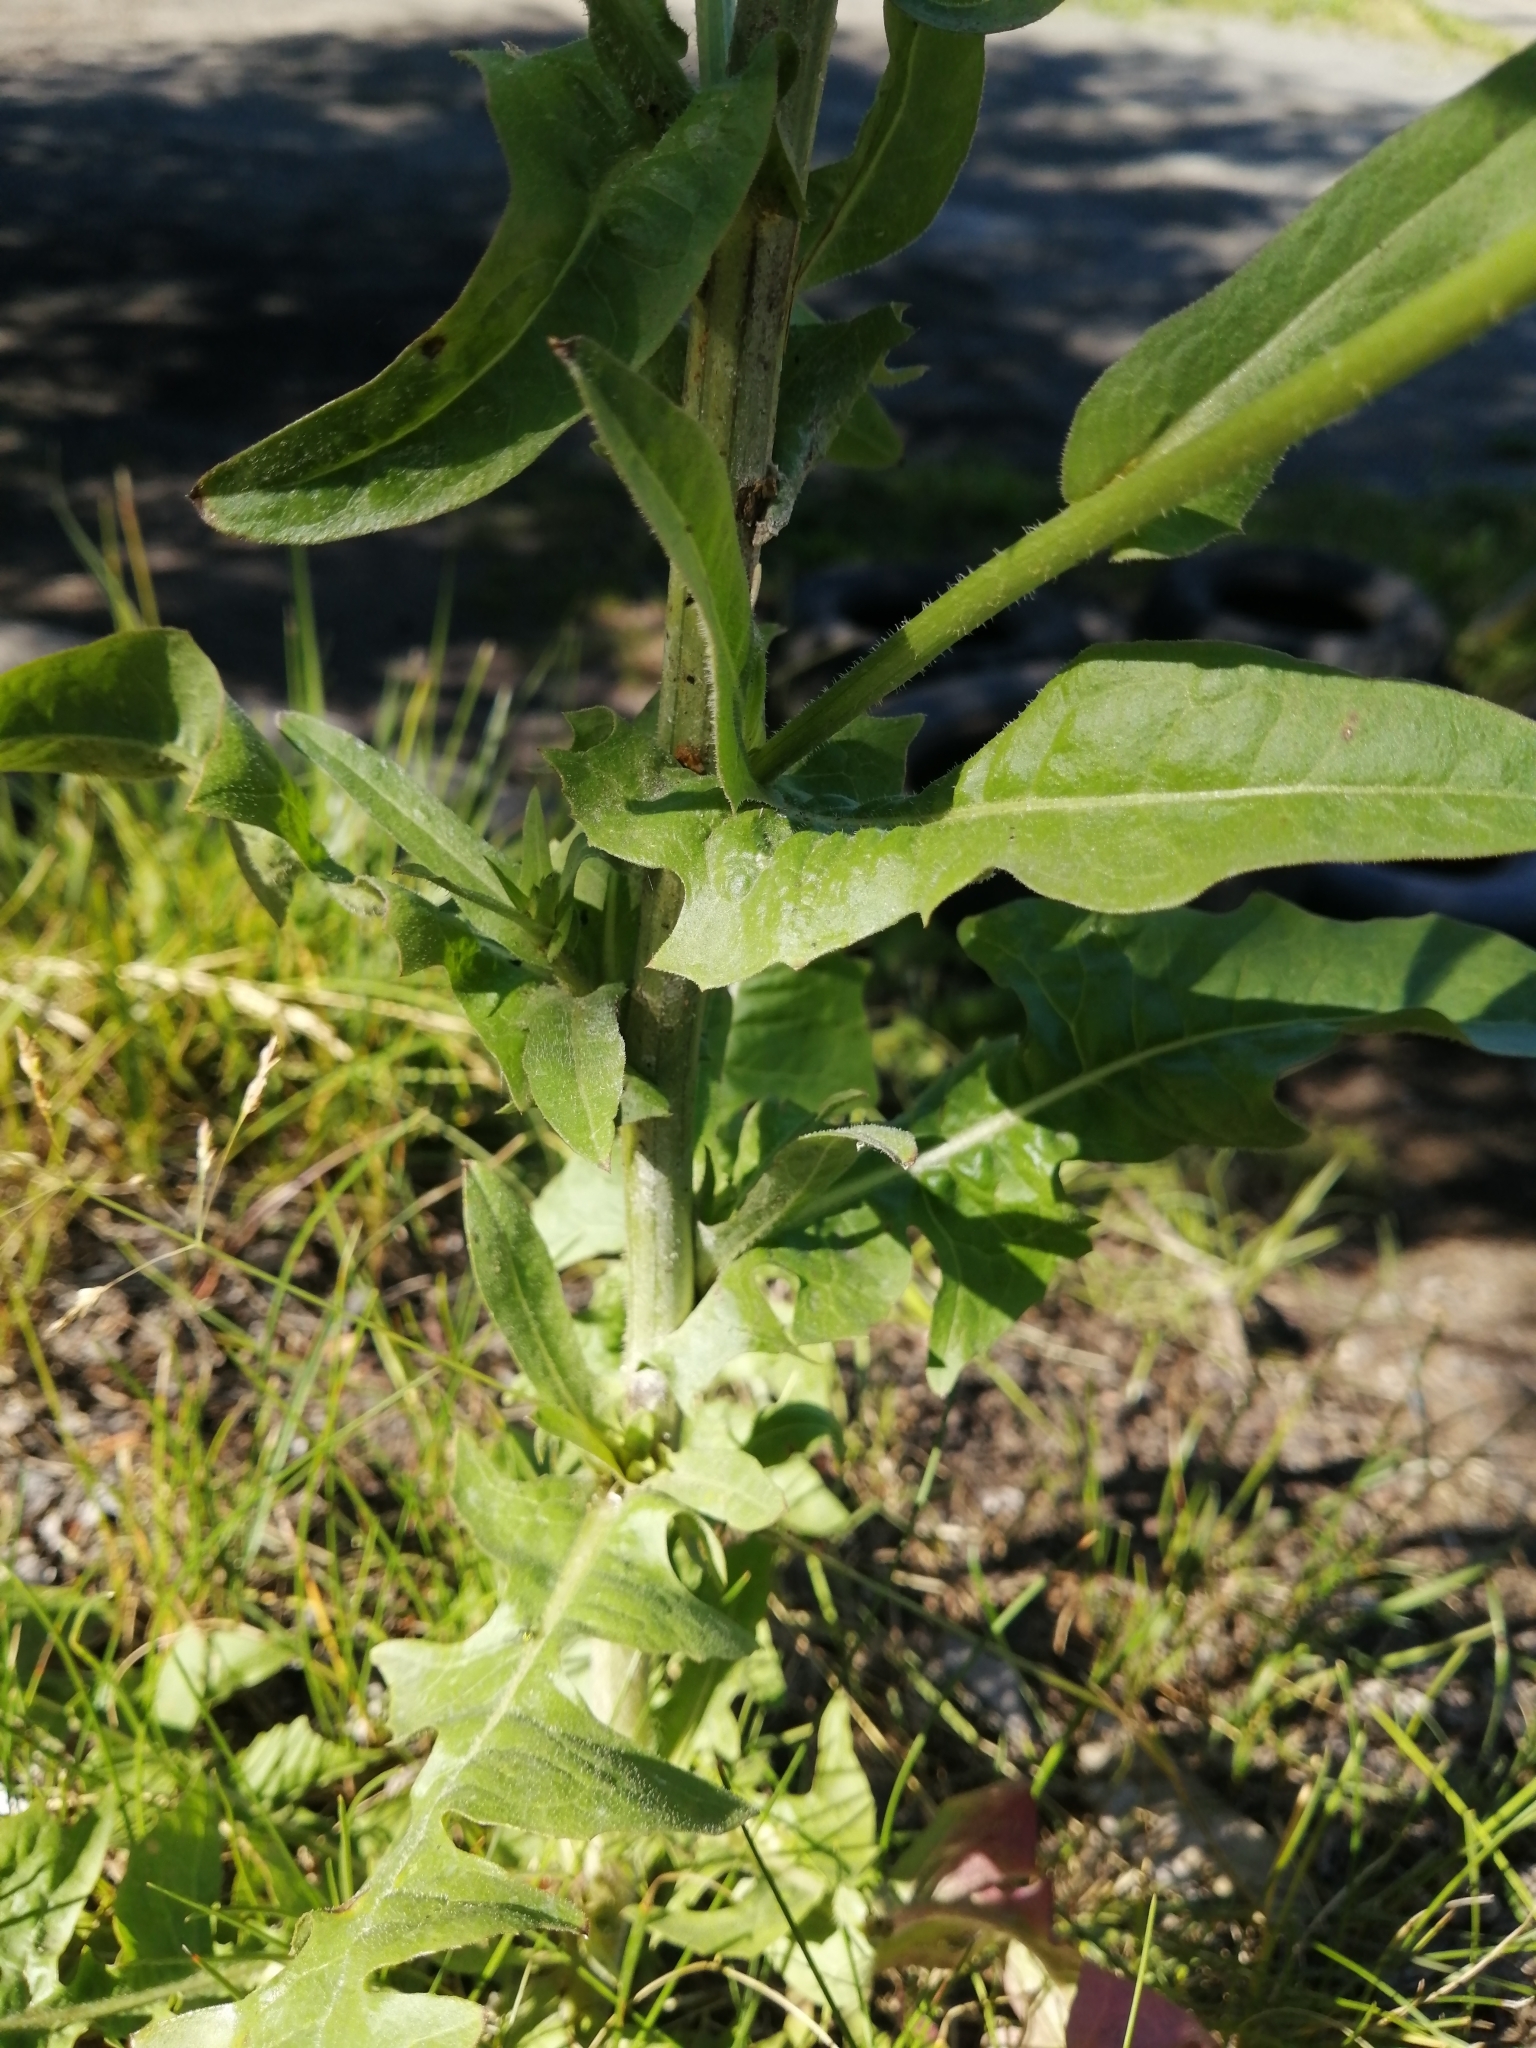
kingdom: Plantae
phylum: Tracheophyta
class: Magnoliopsida
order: Asterales
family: Asteraceae
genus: Cichorium
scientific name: Cichorium intybus
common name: Chicory
